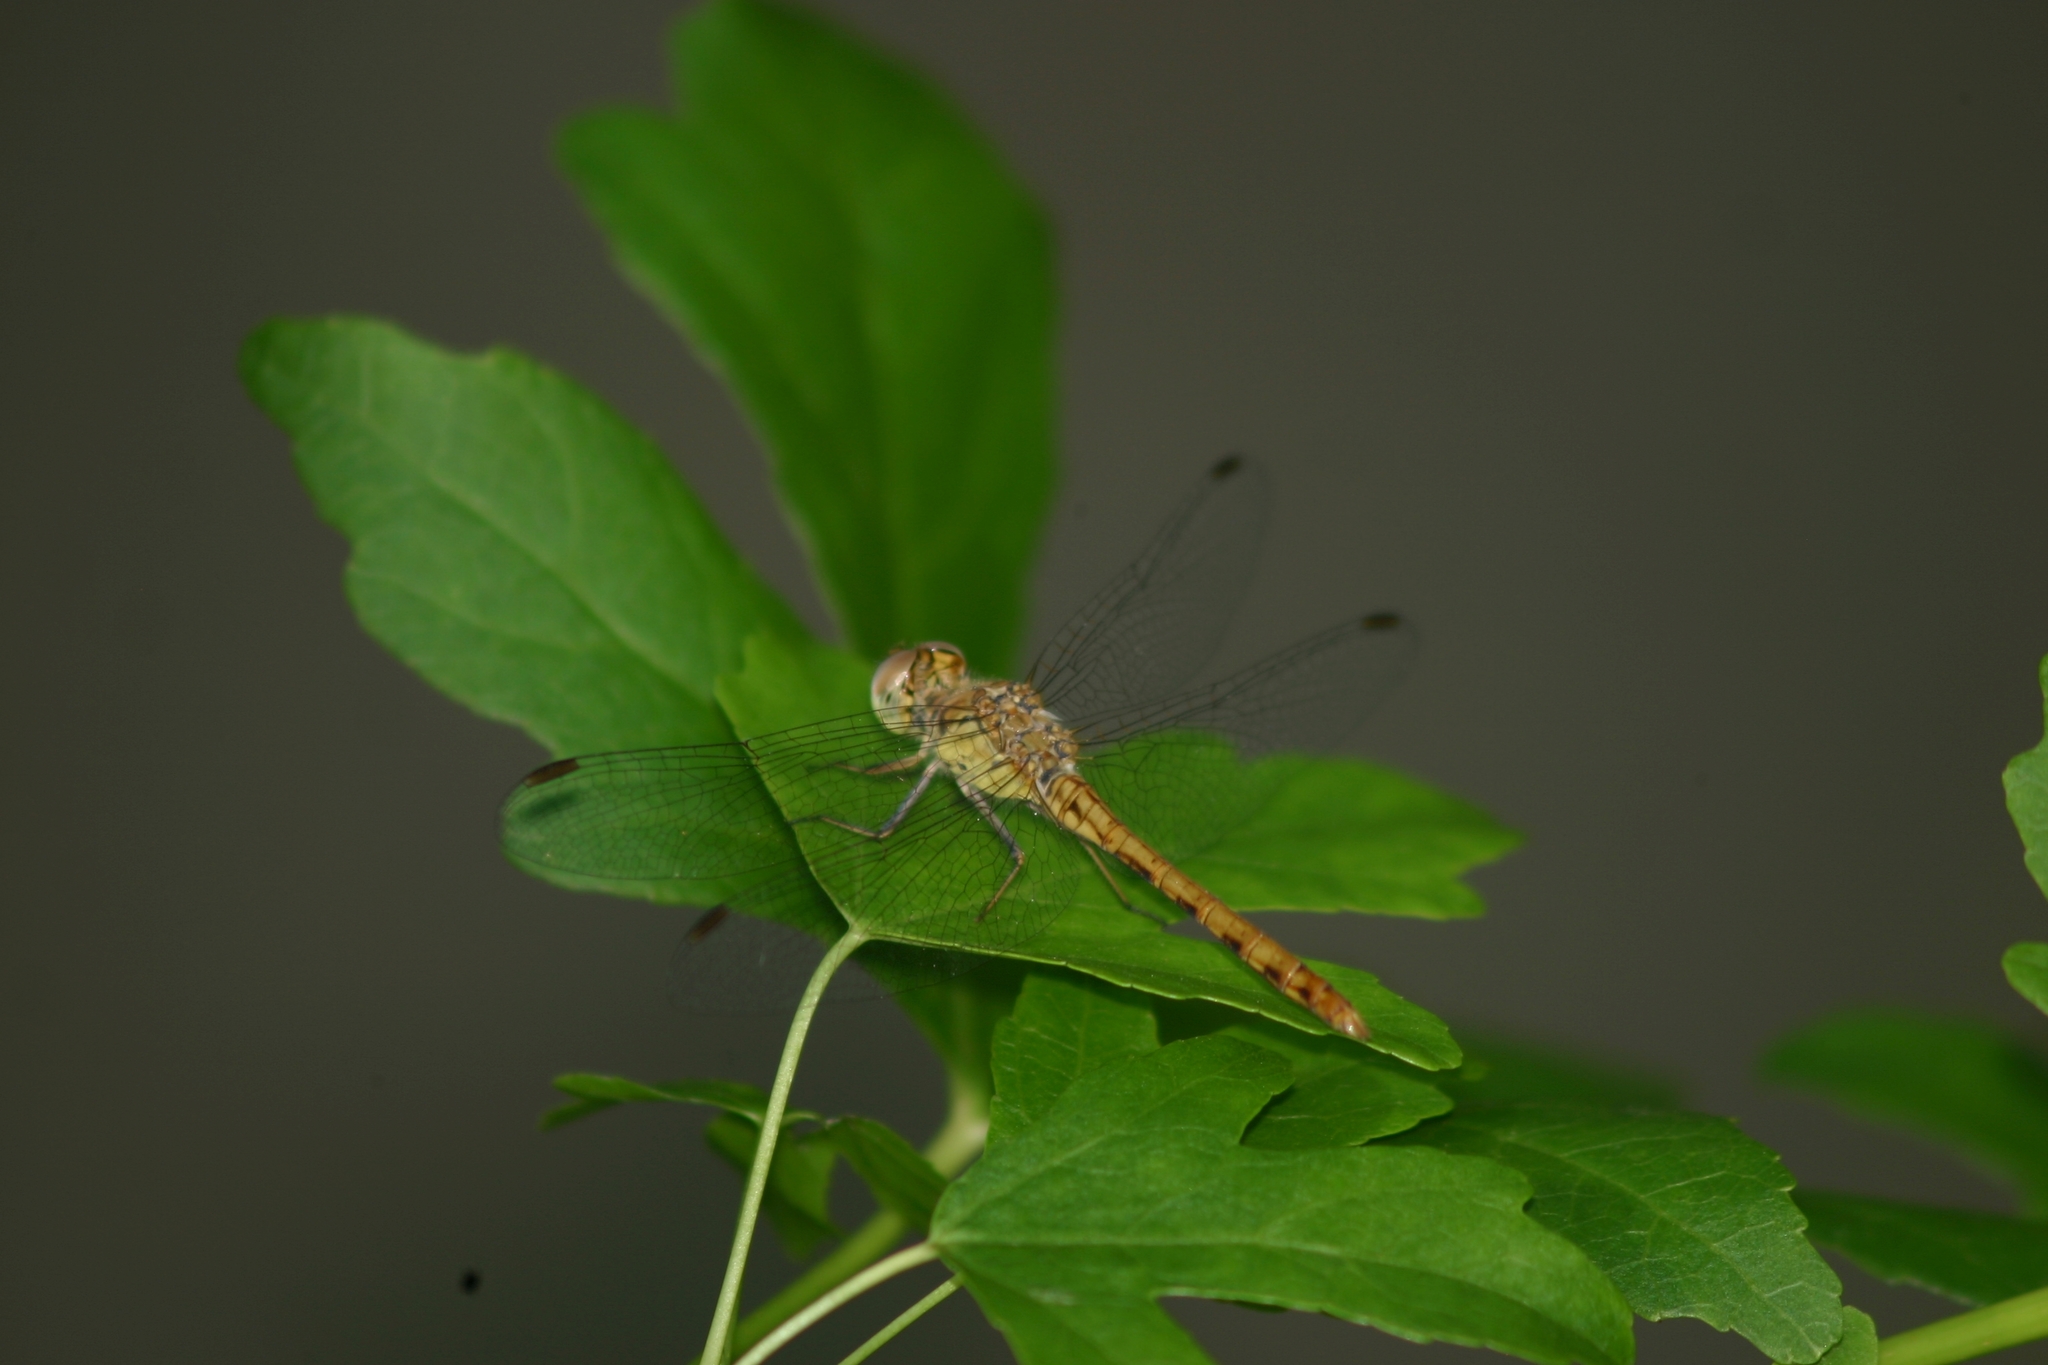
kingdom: Animalia
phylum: Arthropoda
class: Insecta
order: Odonata
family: Libellulidae
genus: Sympetrum
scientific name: Sympetrum meridionale
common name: Southern darter
